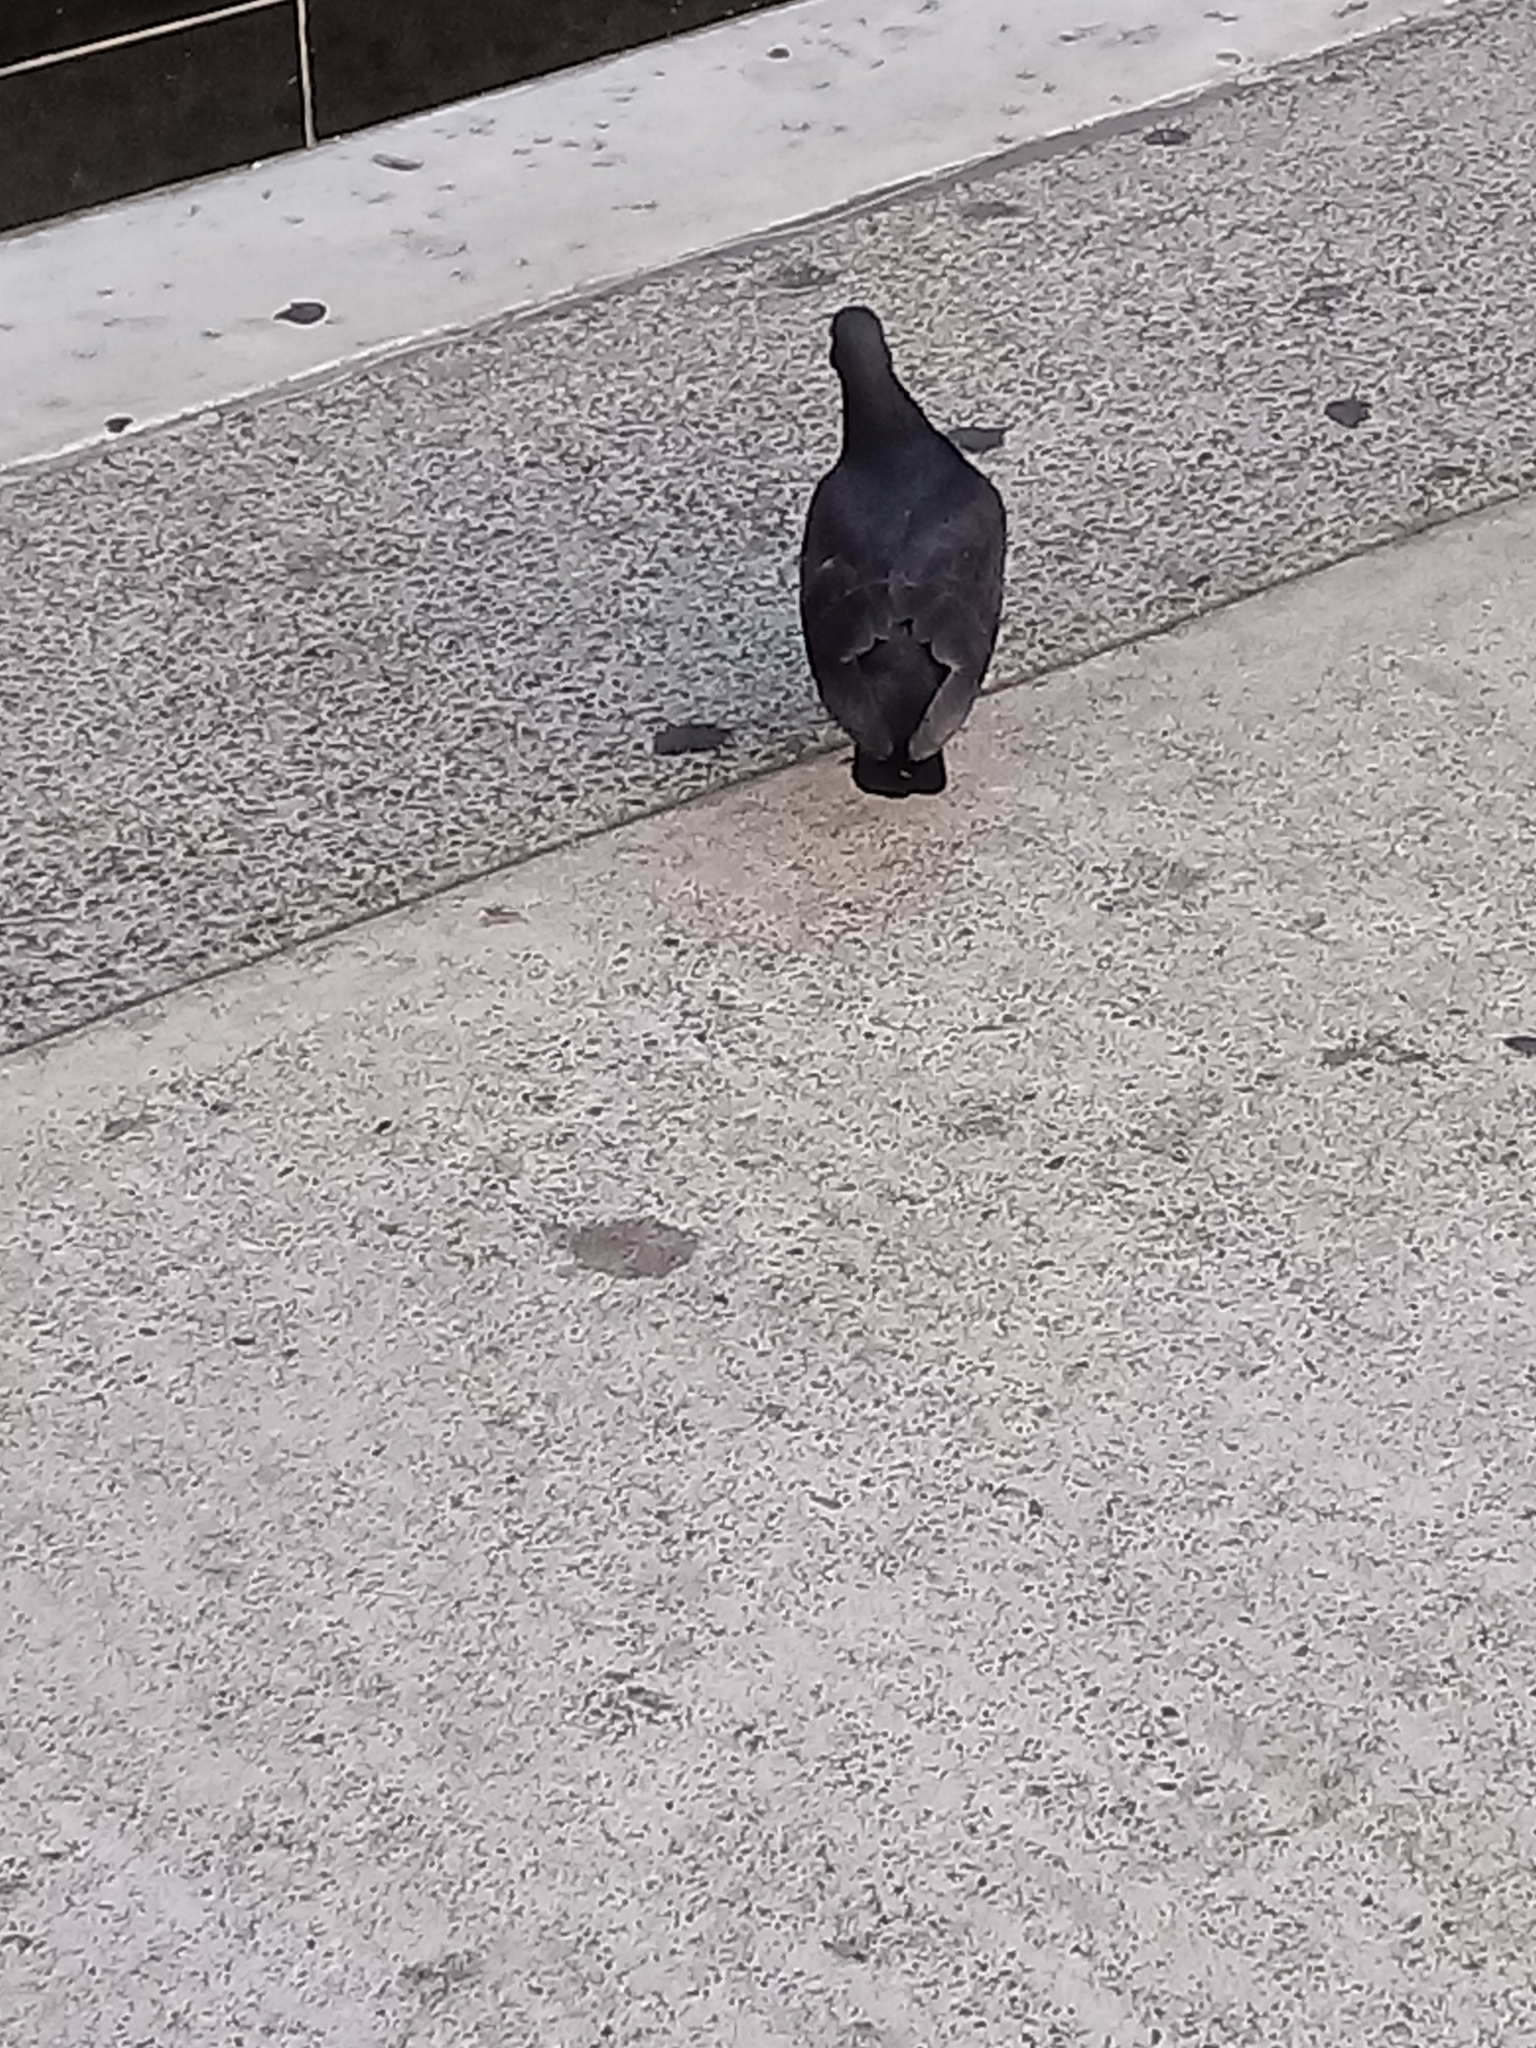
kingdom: Animalia
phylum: Chordata
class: Aves
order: Columbiformes
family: Columbidae
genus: Columba
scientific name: Columba livia
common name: Rock pigeon
